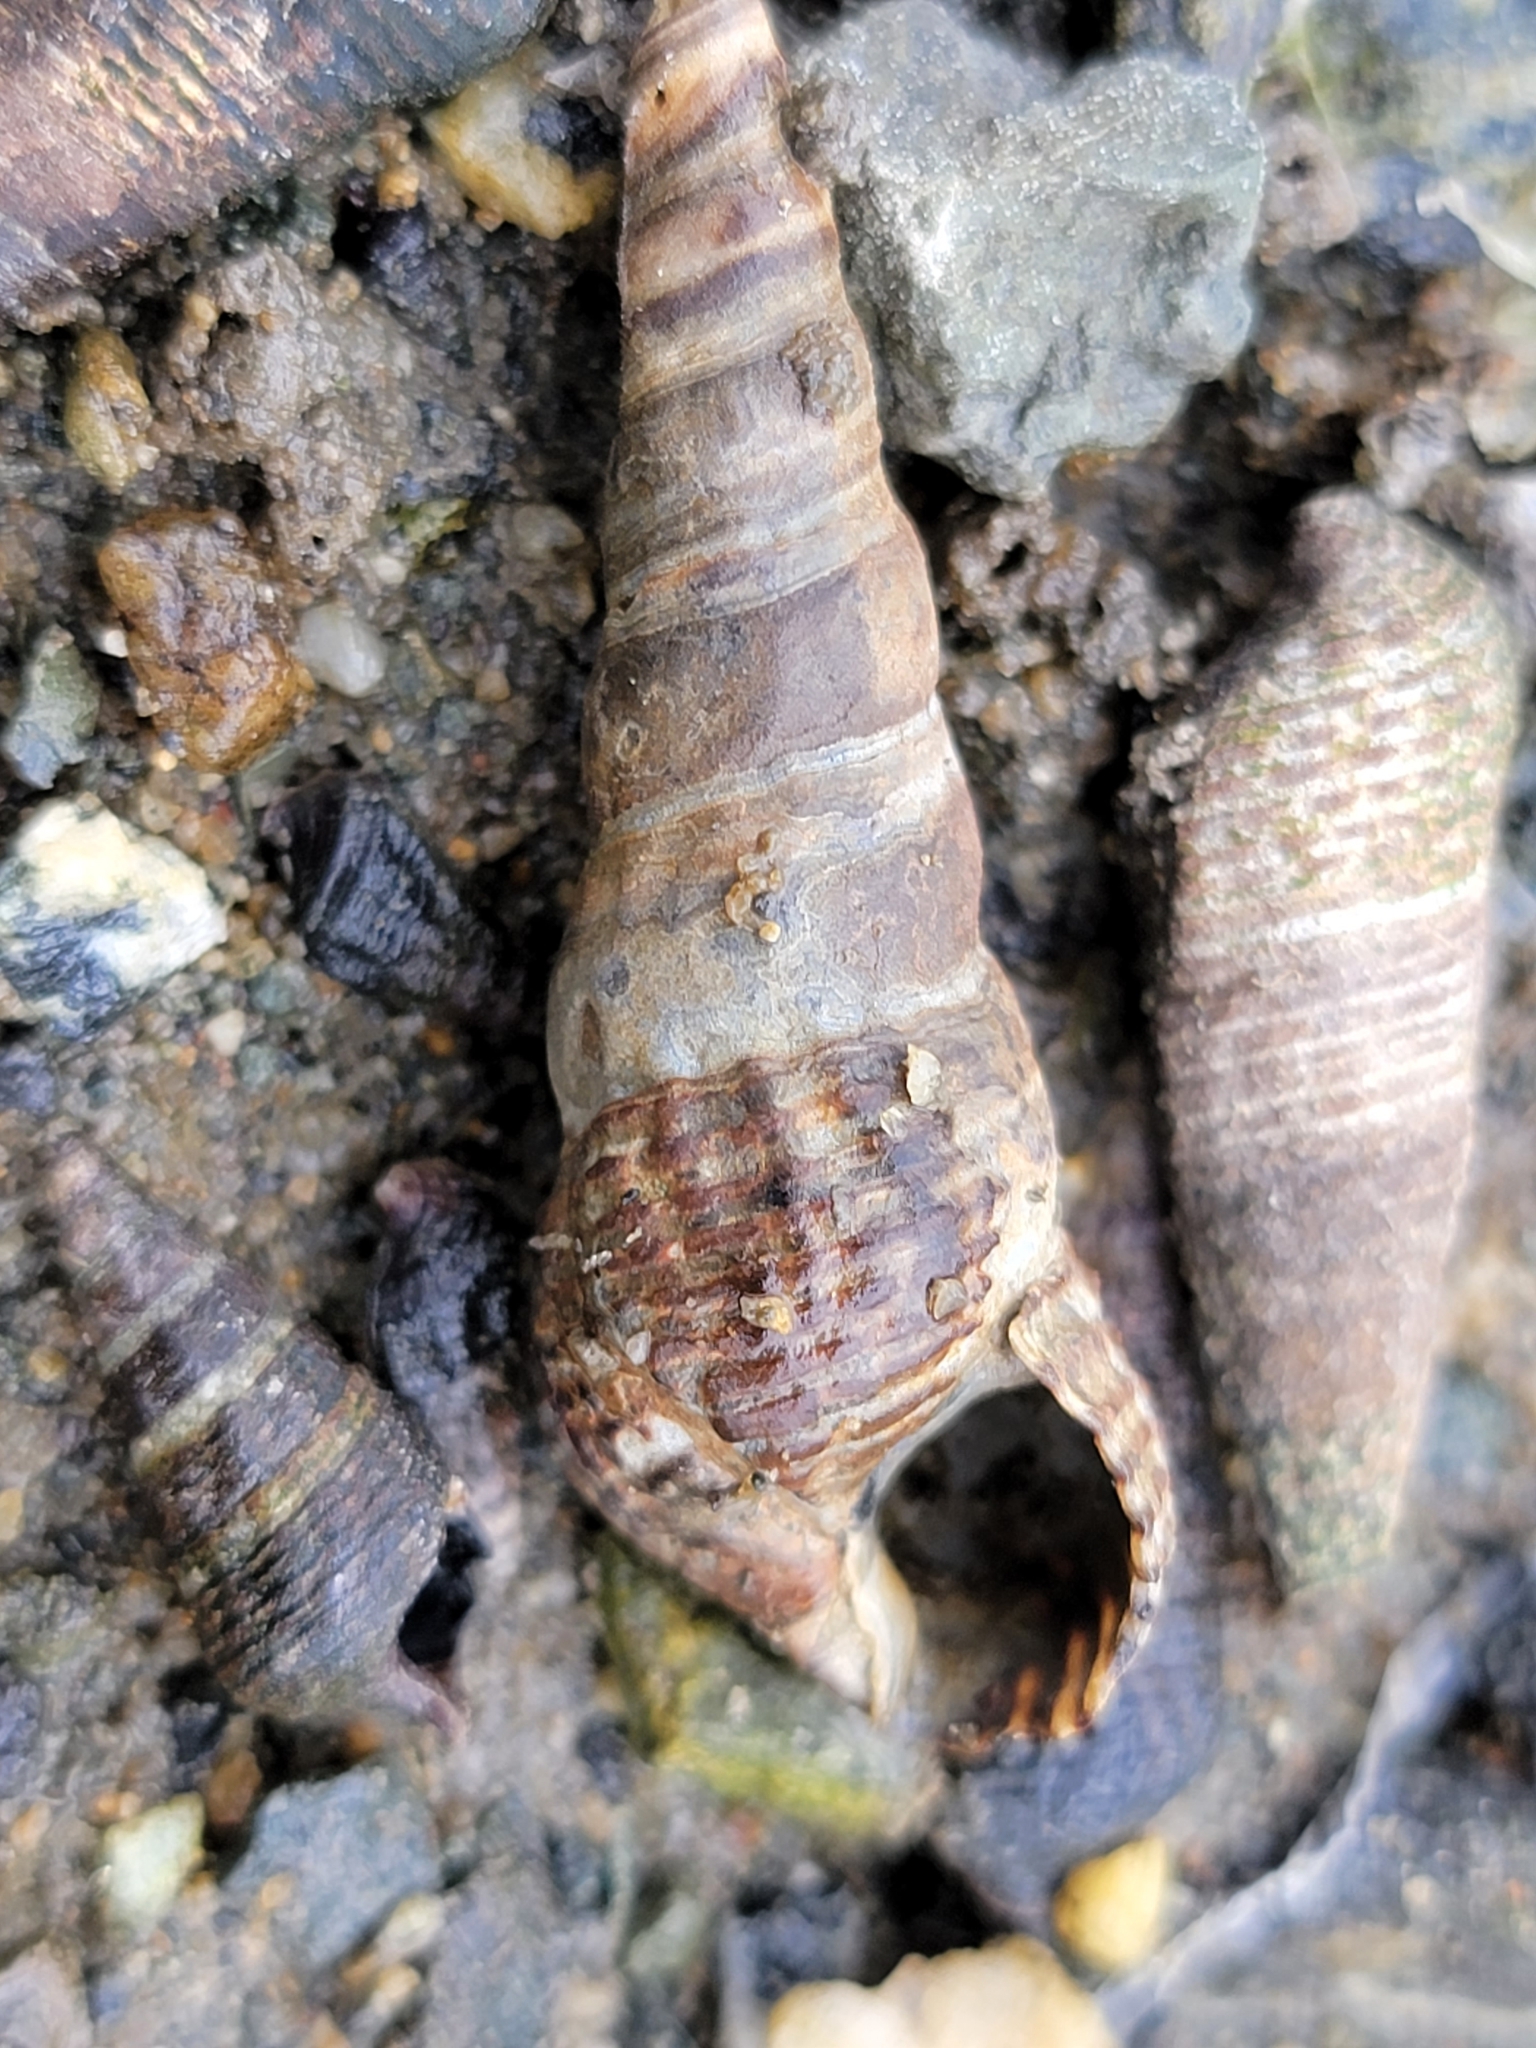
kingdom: Animalia
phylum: Mollusca
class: Gastropoda
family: Batillariidae
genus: Batillaria
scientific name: Batillaria attramentaria
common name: Japanese false cerith
